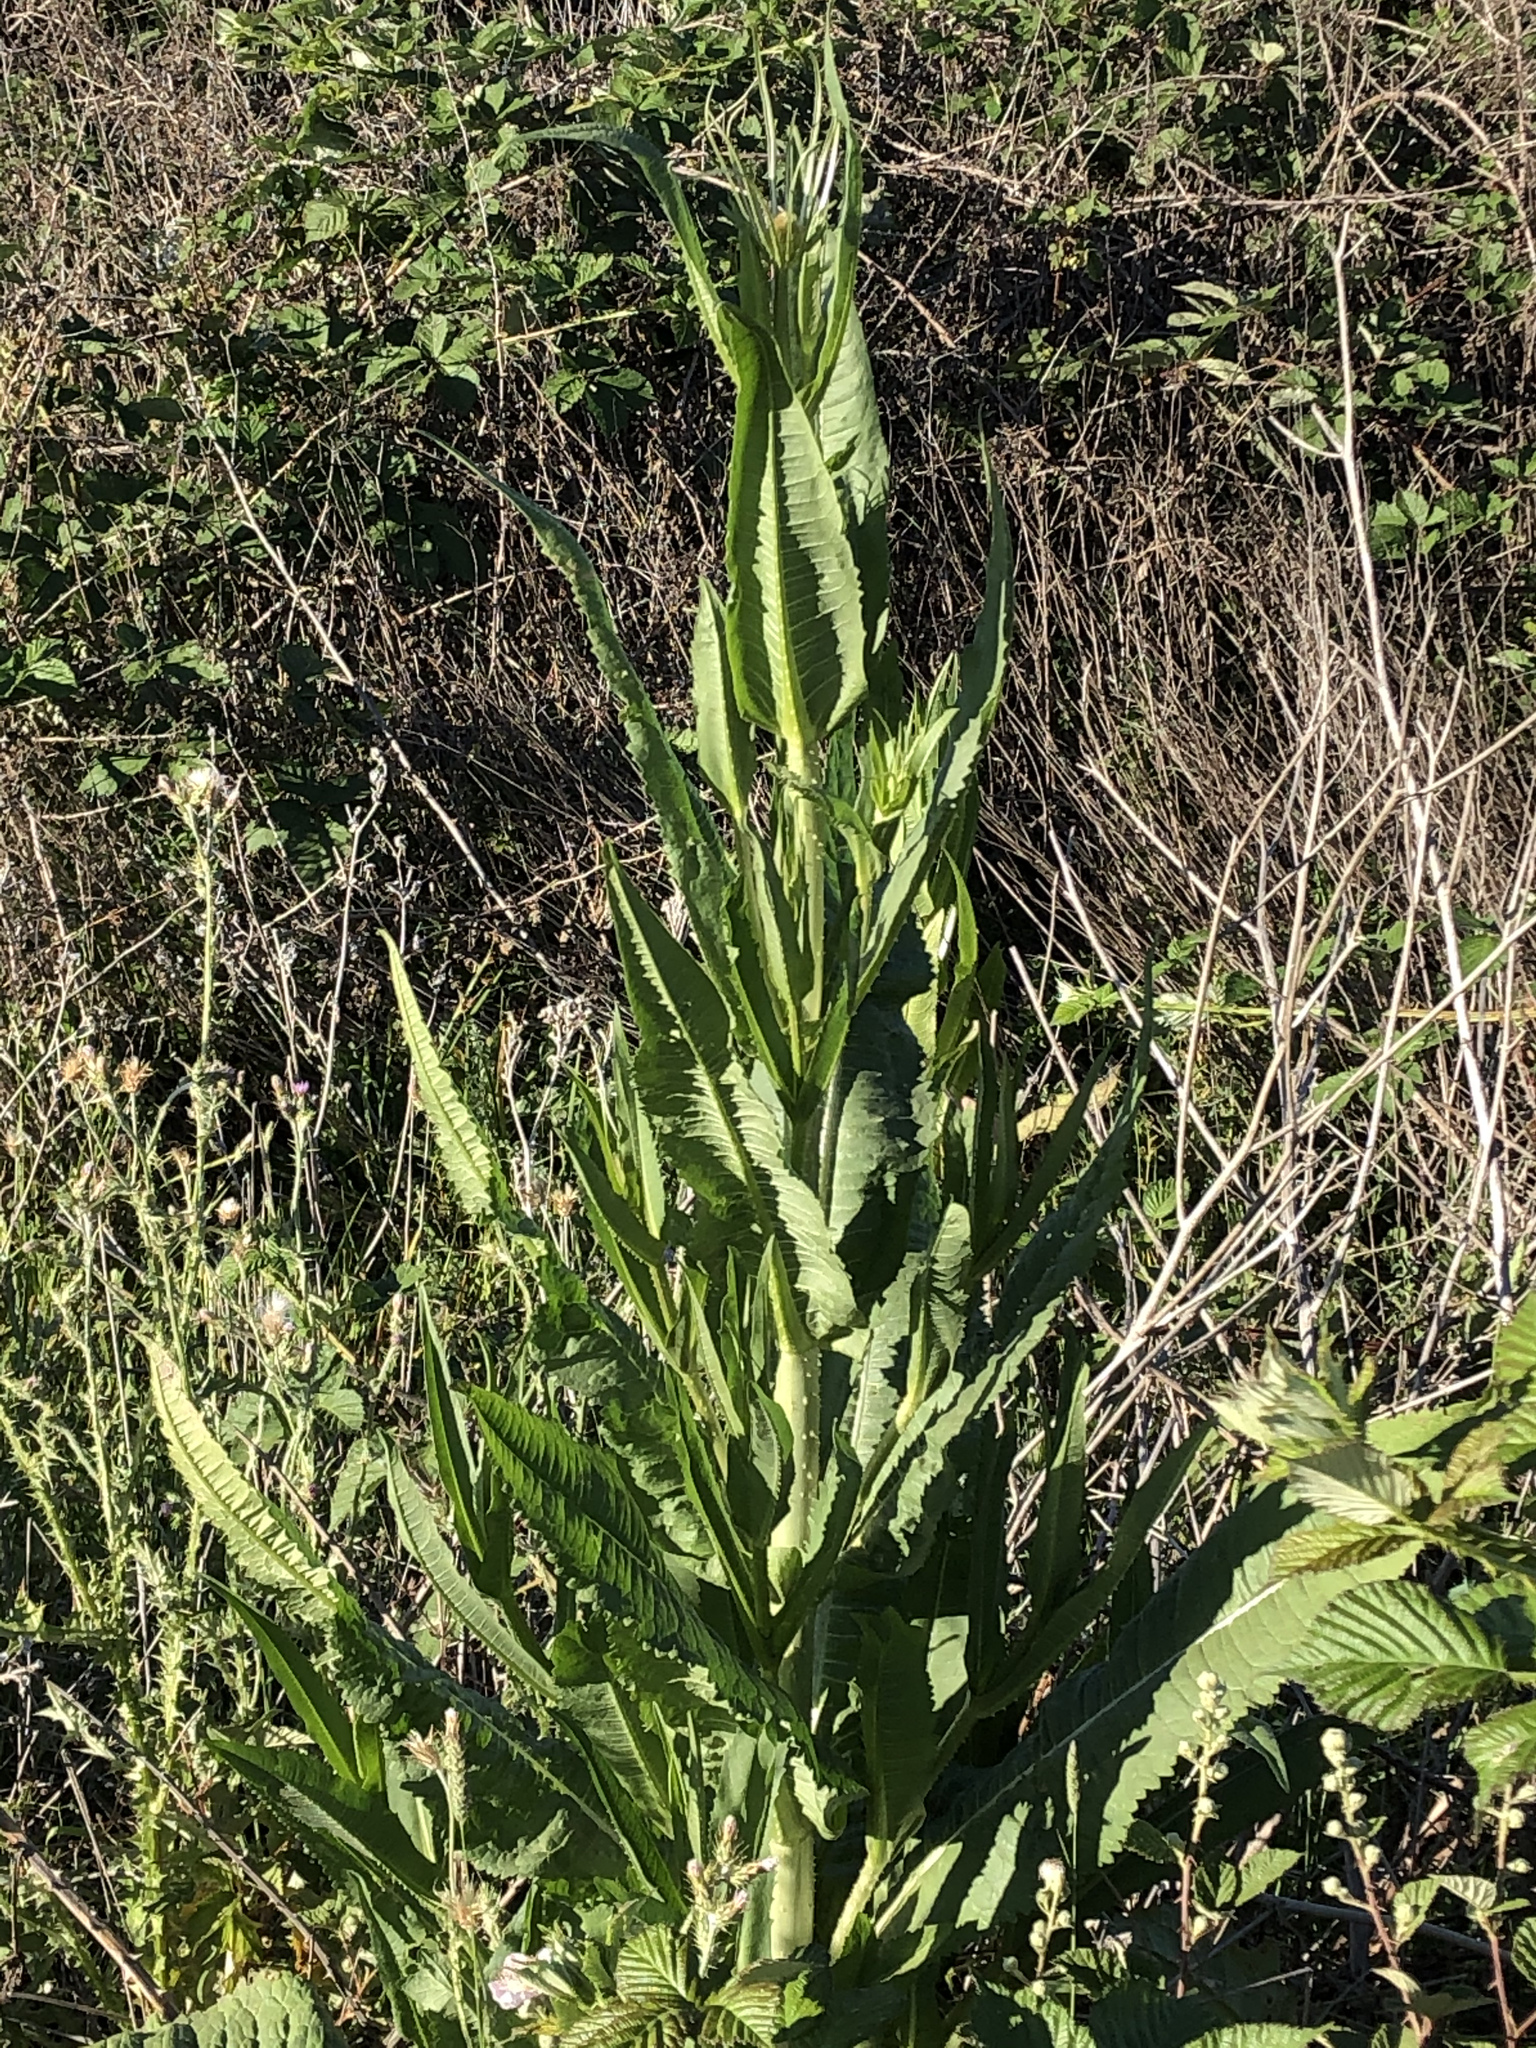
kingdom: Plantae
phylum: Tracheophyta
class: Magnoliopsida
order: Dipsacales
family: Caprifoliaceae
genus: Dipsacus
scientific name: Dipsacus fullonum
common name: Teasel
